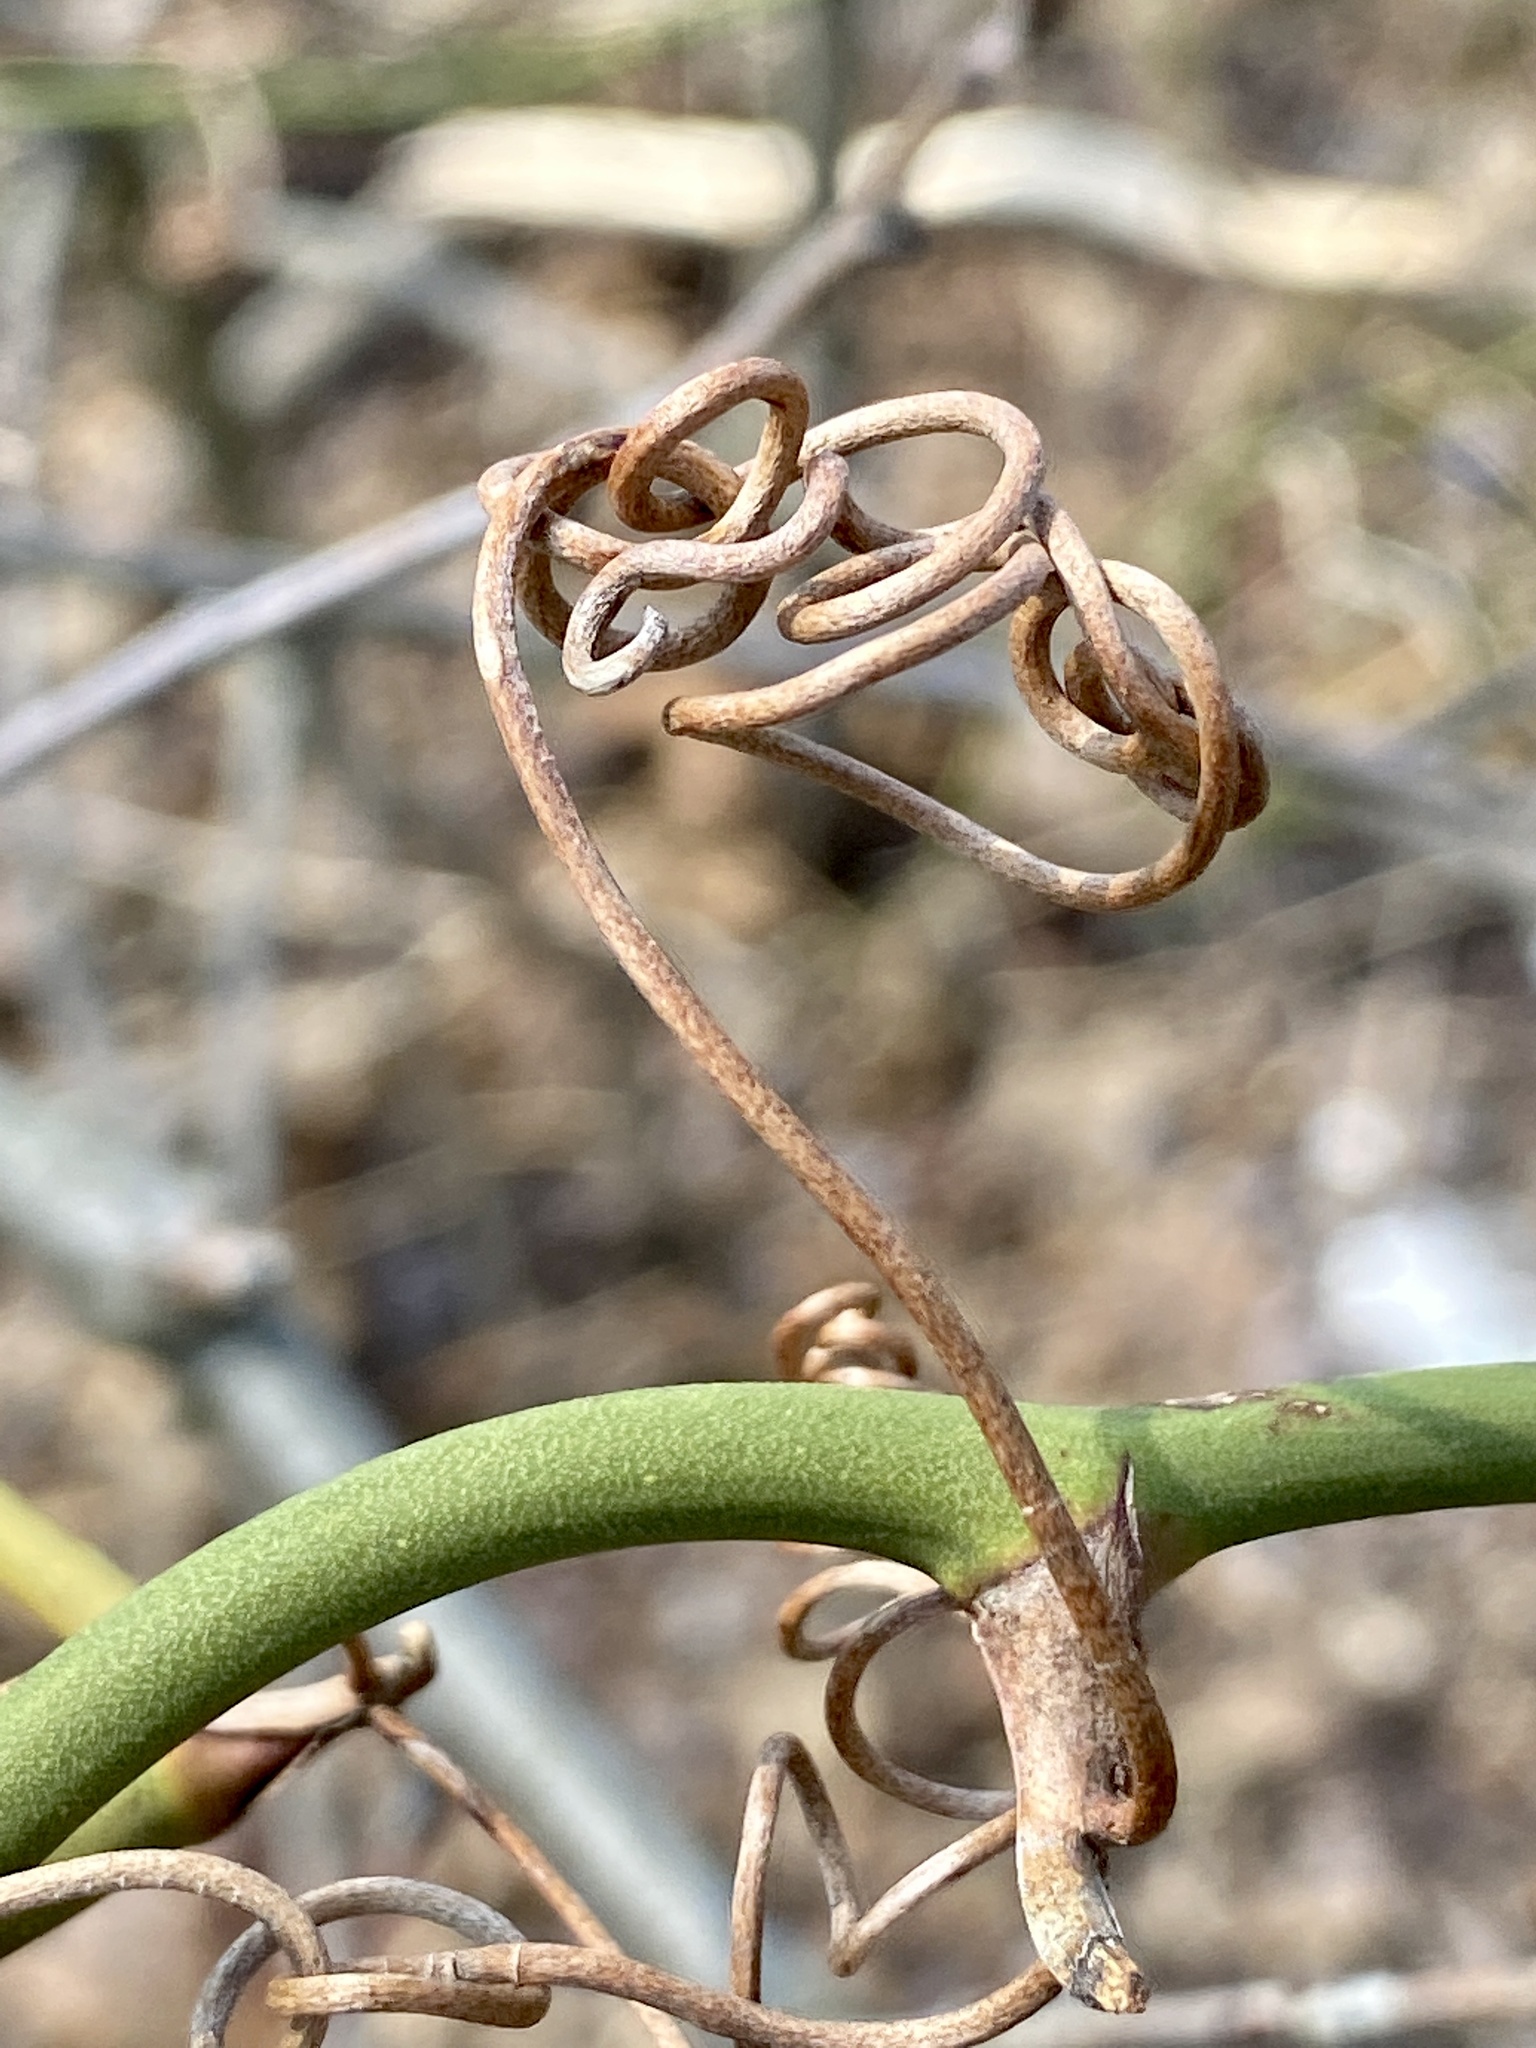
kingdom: Plantae
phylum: Tracheophyta
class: Liliopsida
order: Liliales
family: Smilacaceae
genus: Smilax
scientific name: Smilax rotundifolia
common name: Bullbriar
